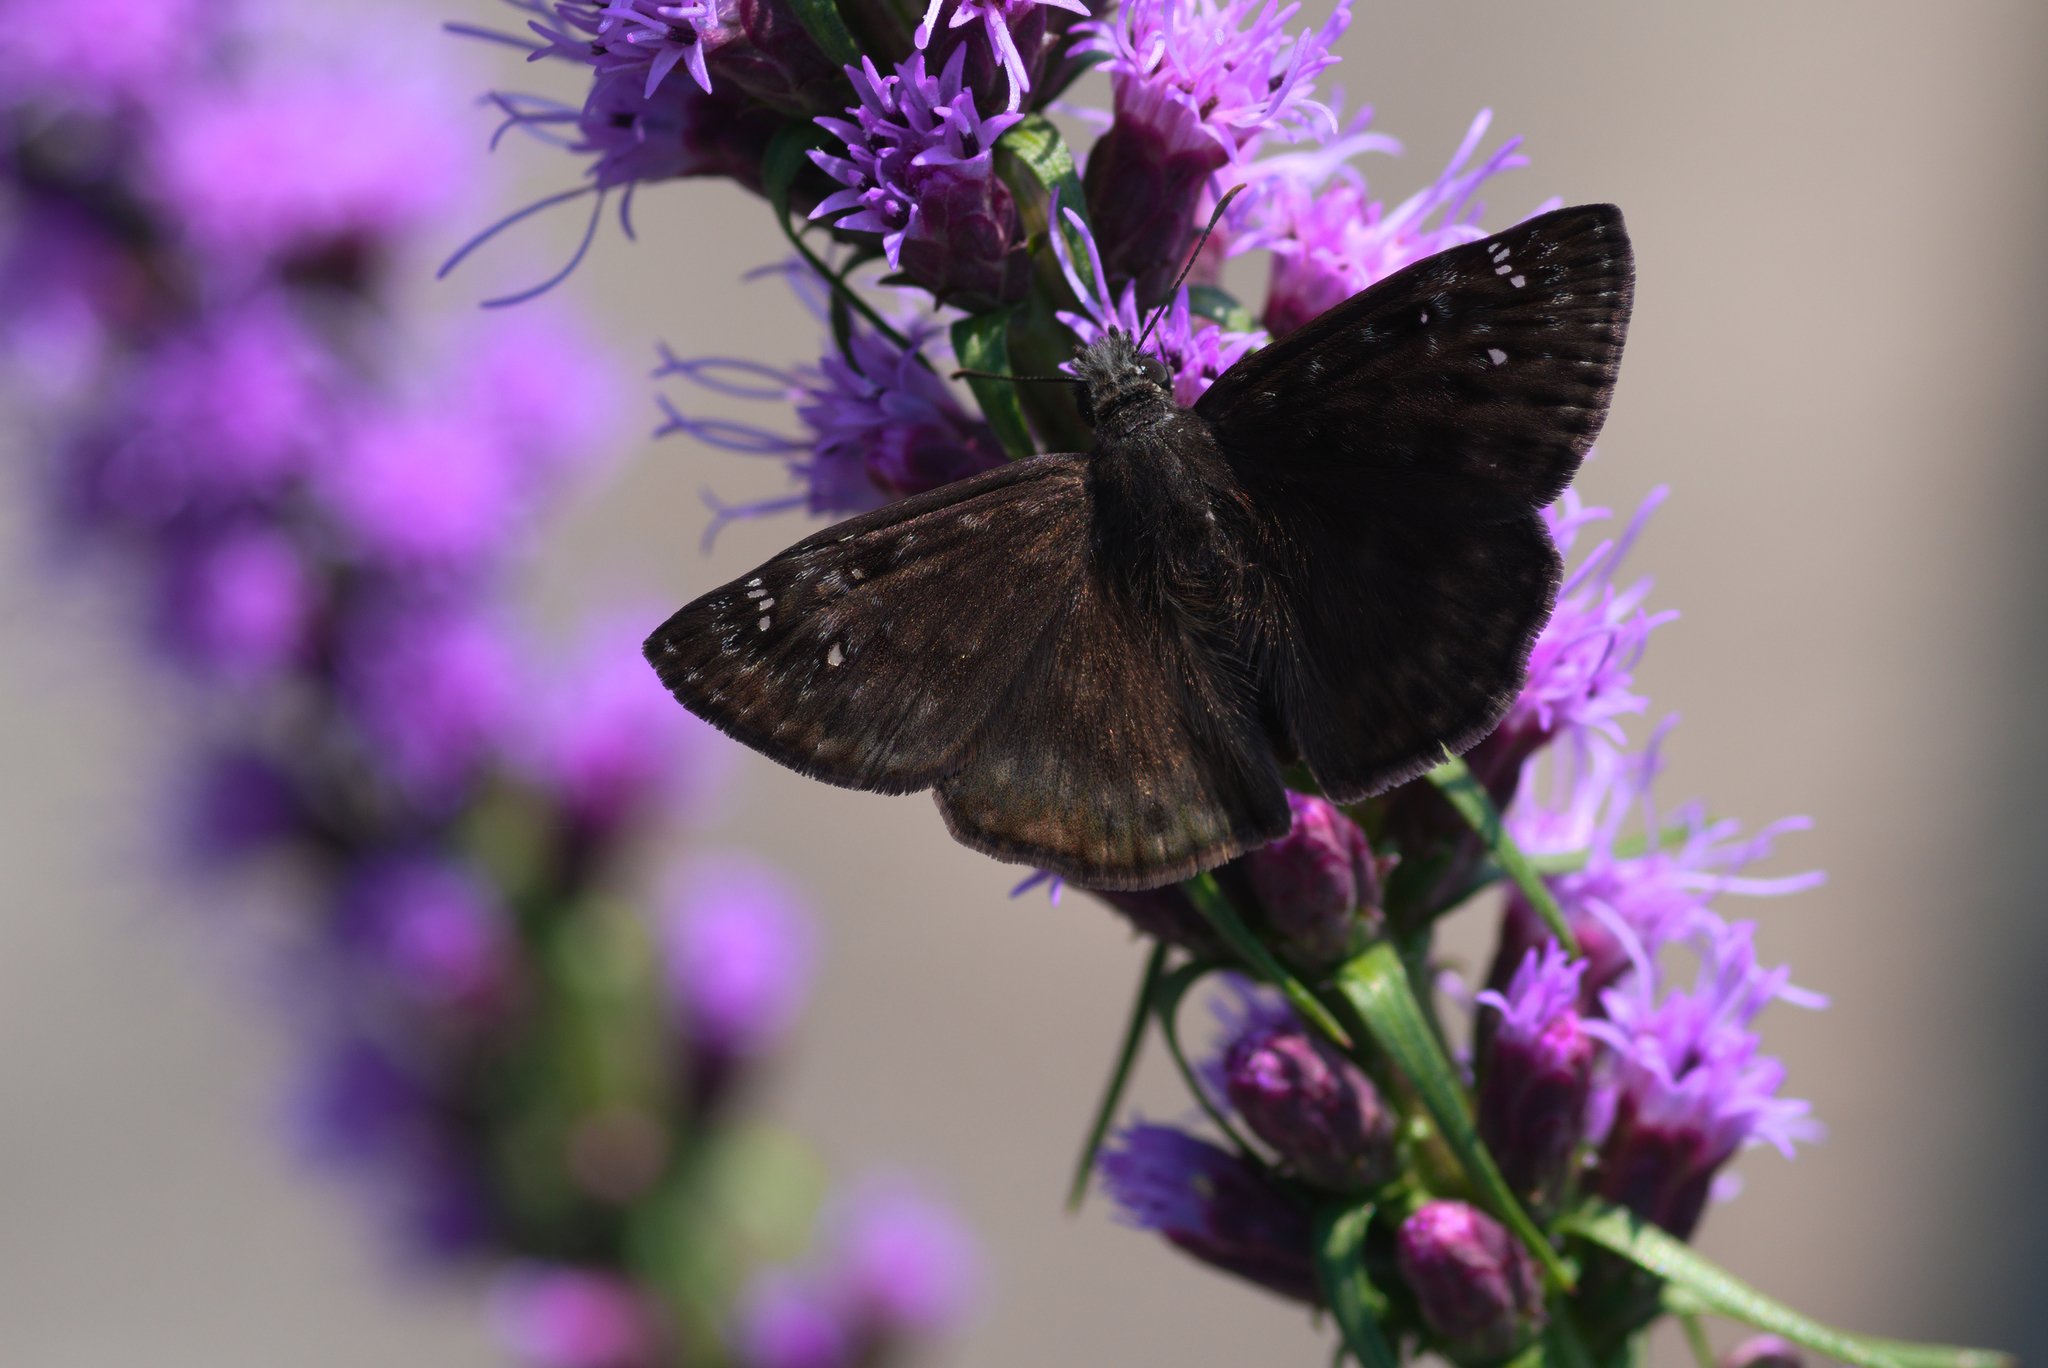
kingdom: Animalia
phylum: Arthropoda
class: Insecta
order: Lepidoptera
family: Hesperiidae
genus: Erynnis
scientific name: Erynnis horatius
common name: Horace's duskywing
